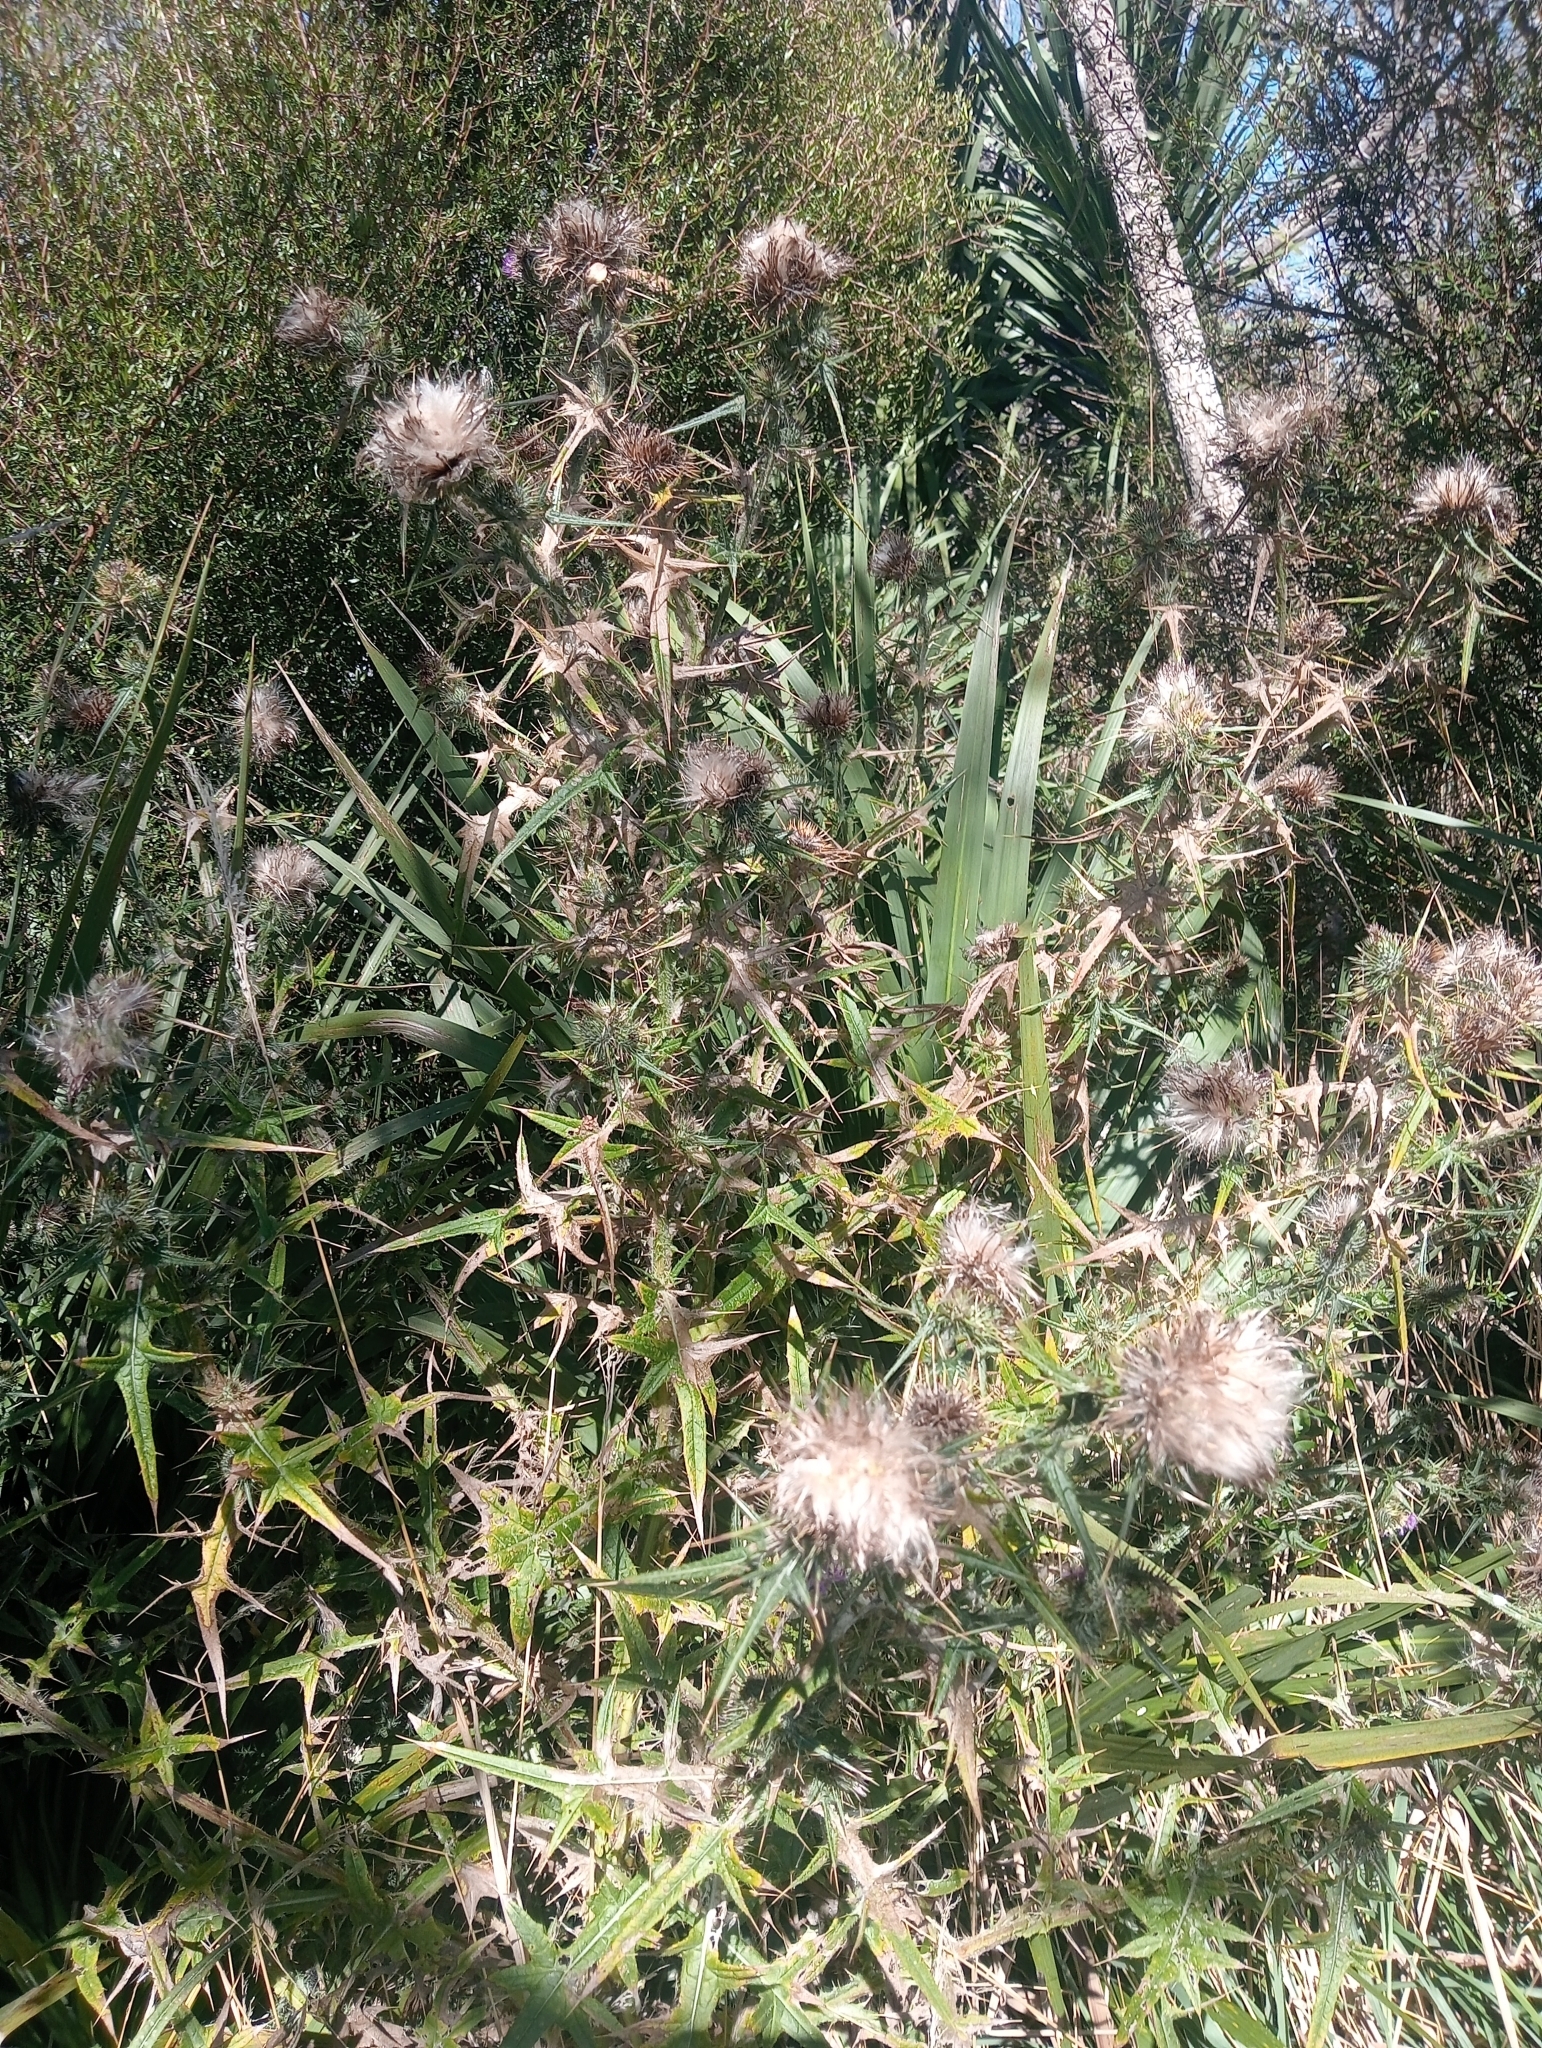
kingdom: Plantae
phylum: Tracheophyta
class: Magnoliopsida
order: Asterales
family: Asteraceae
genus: Cirsium
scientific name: Cirsium vulgare
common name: Bull thistle
